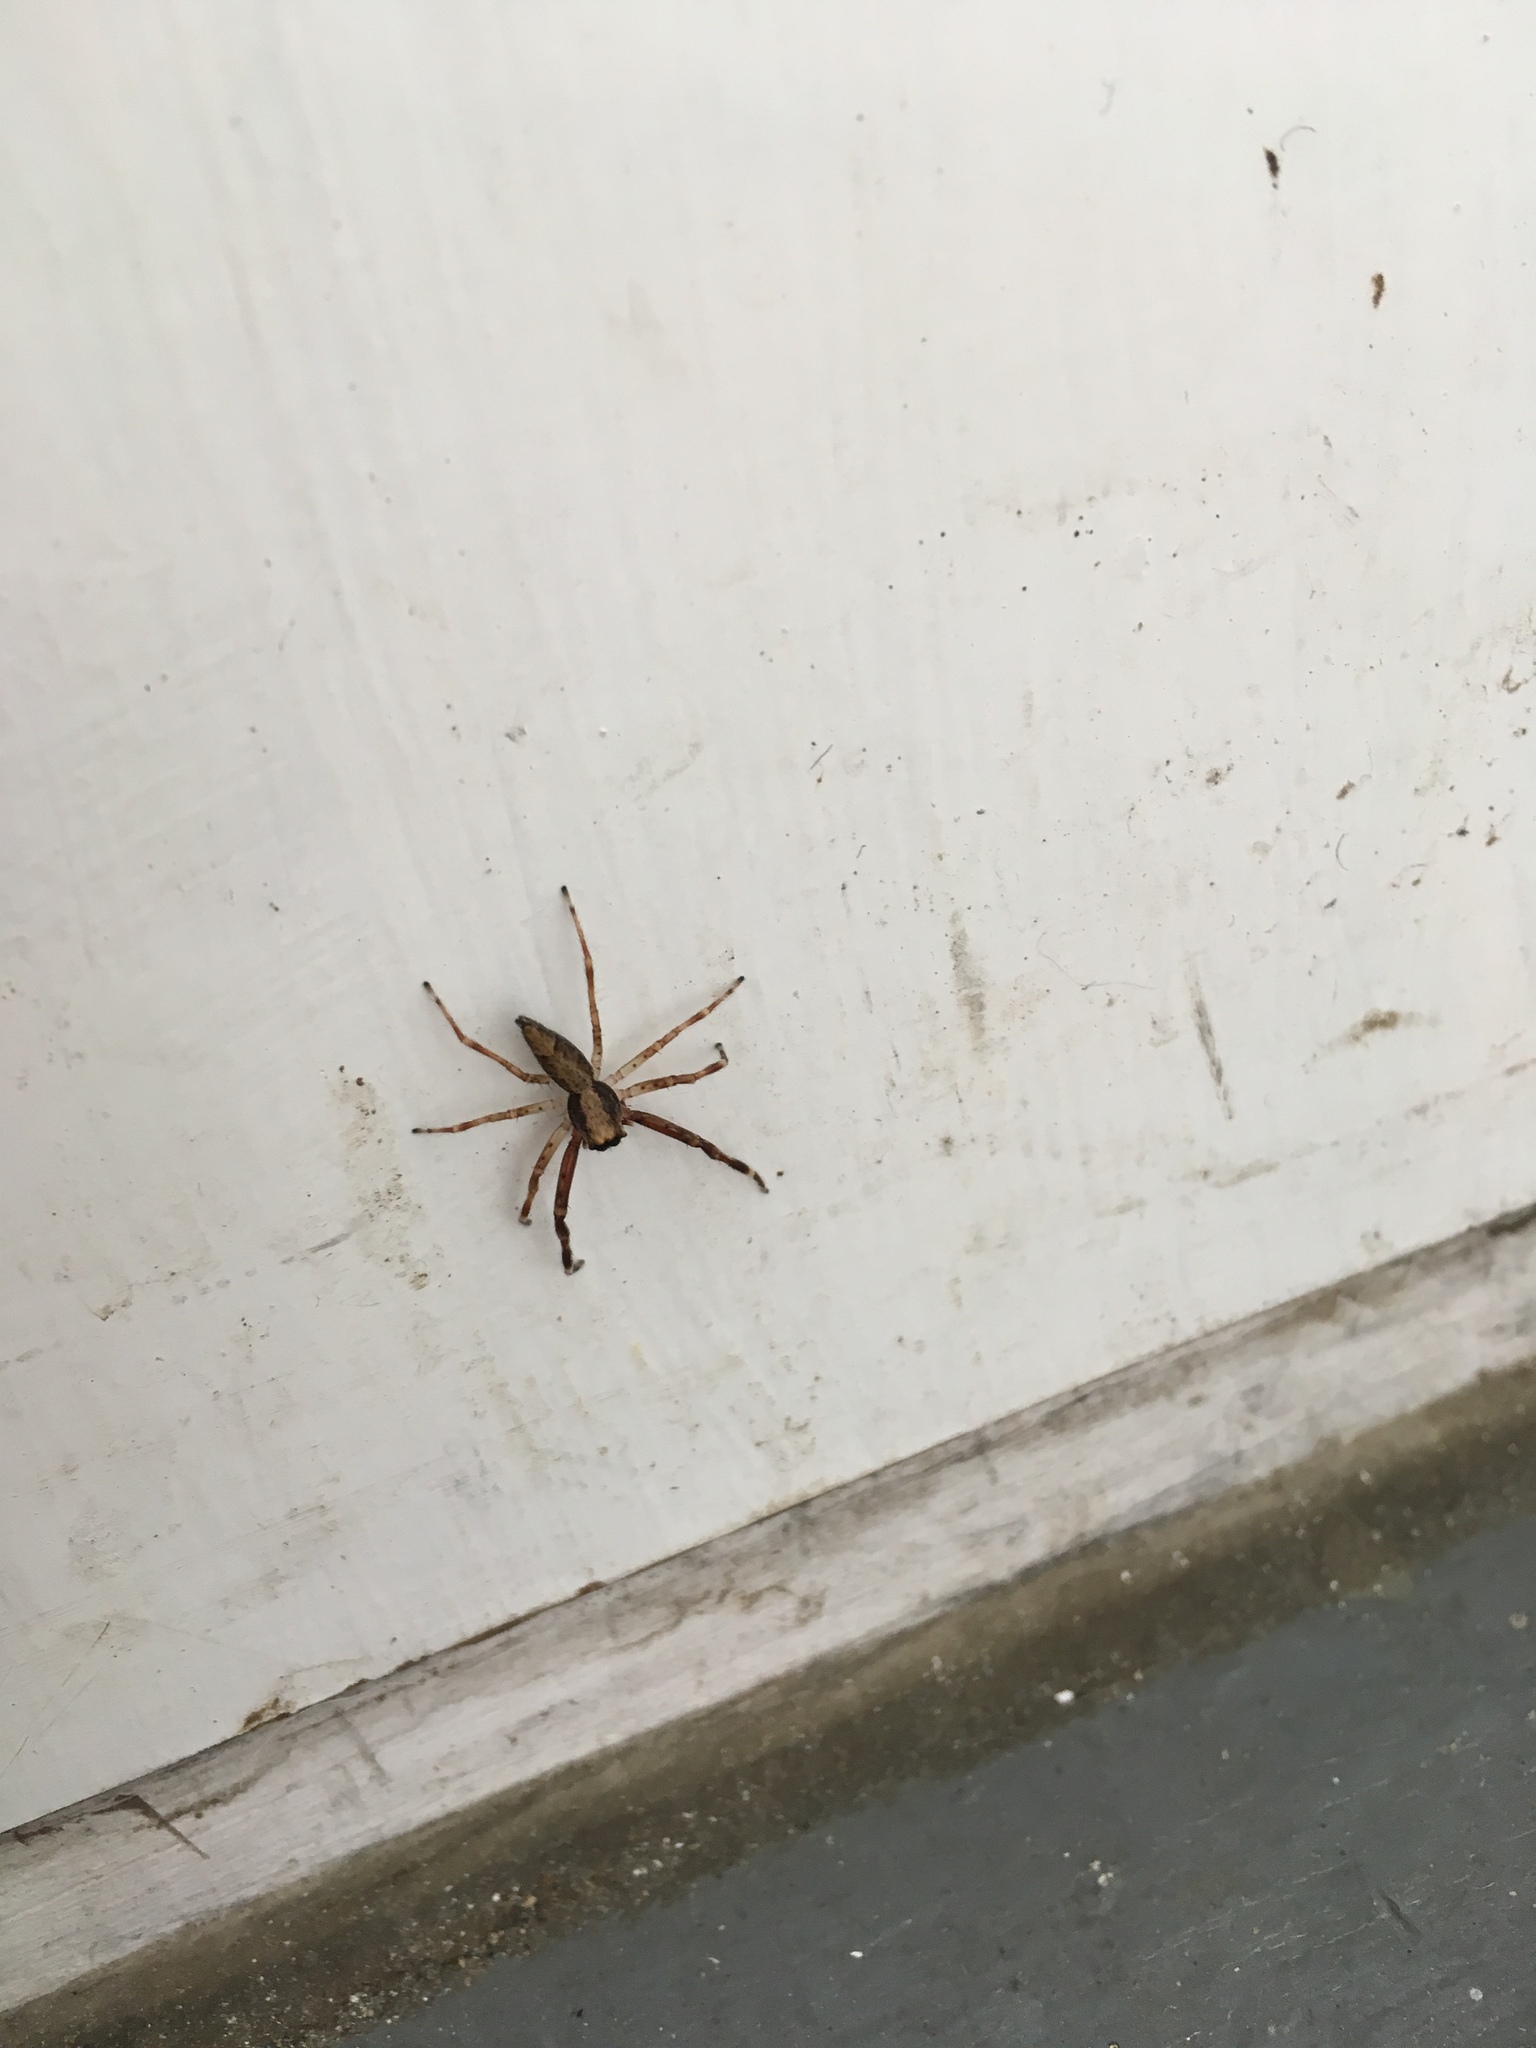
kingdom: Animalia
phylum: Arthropoda
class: Arachnida
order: Araneae
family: Salticidae
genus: Helpis
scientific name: Helpis minitabunda
